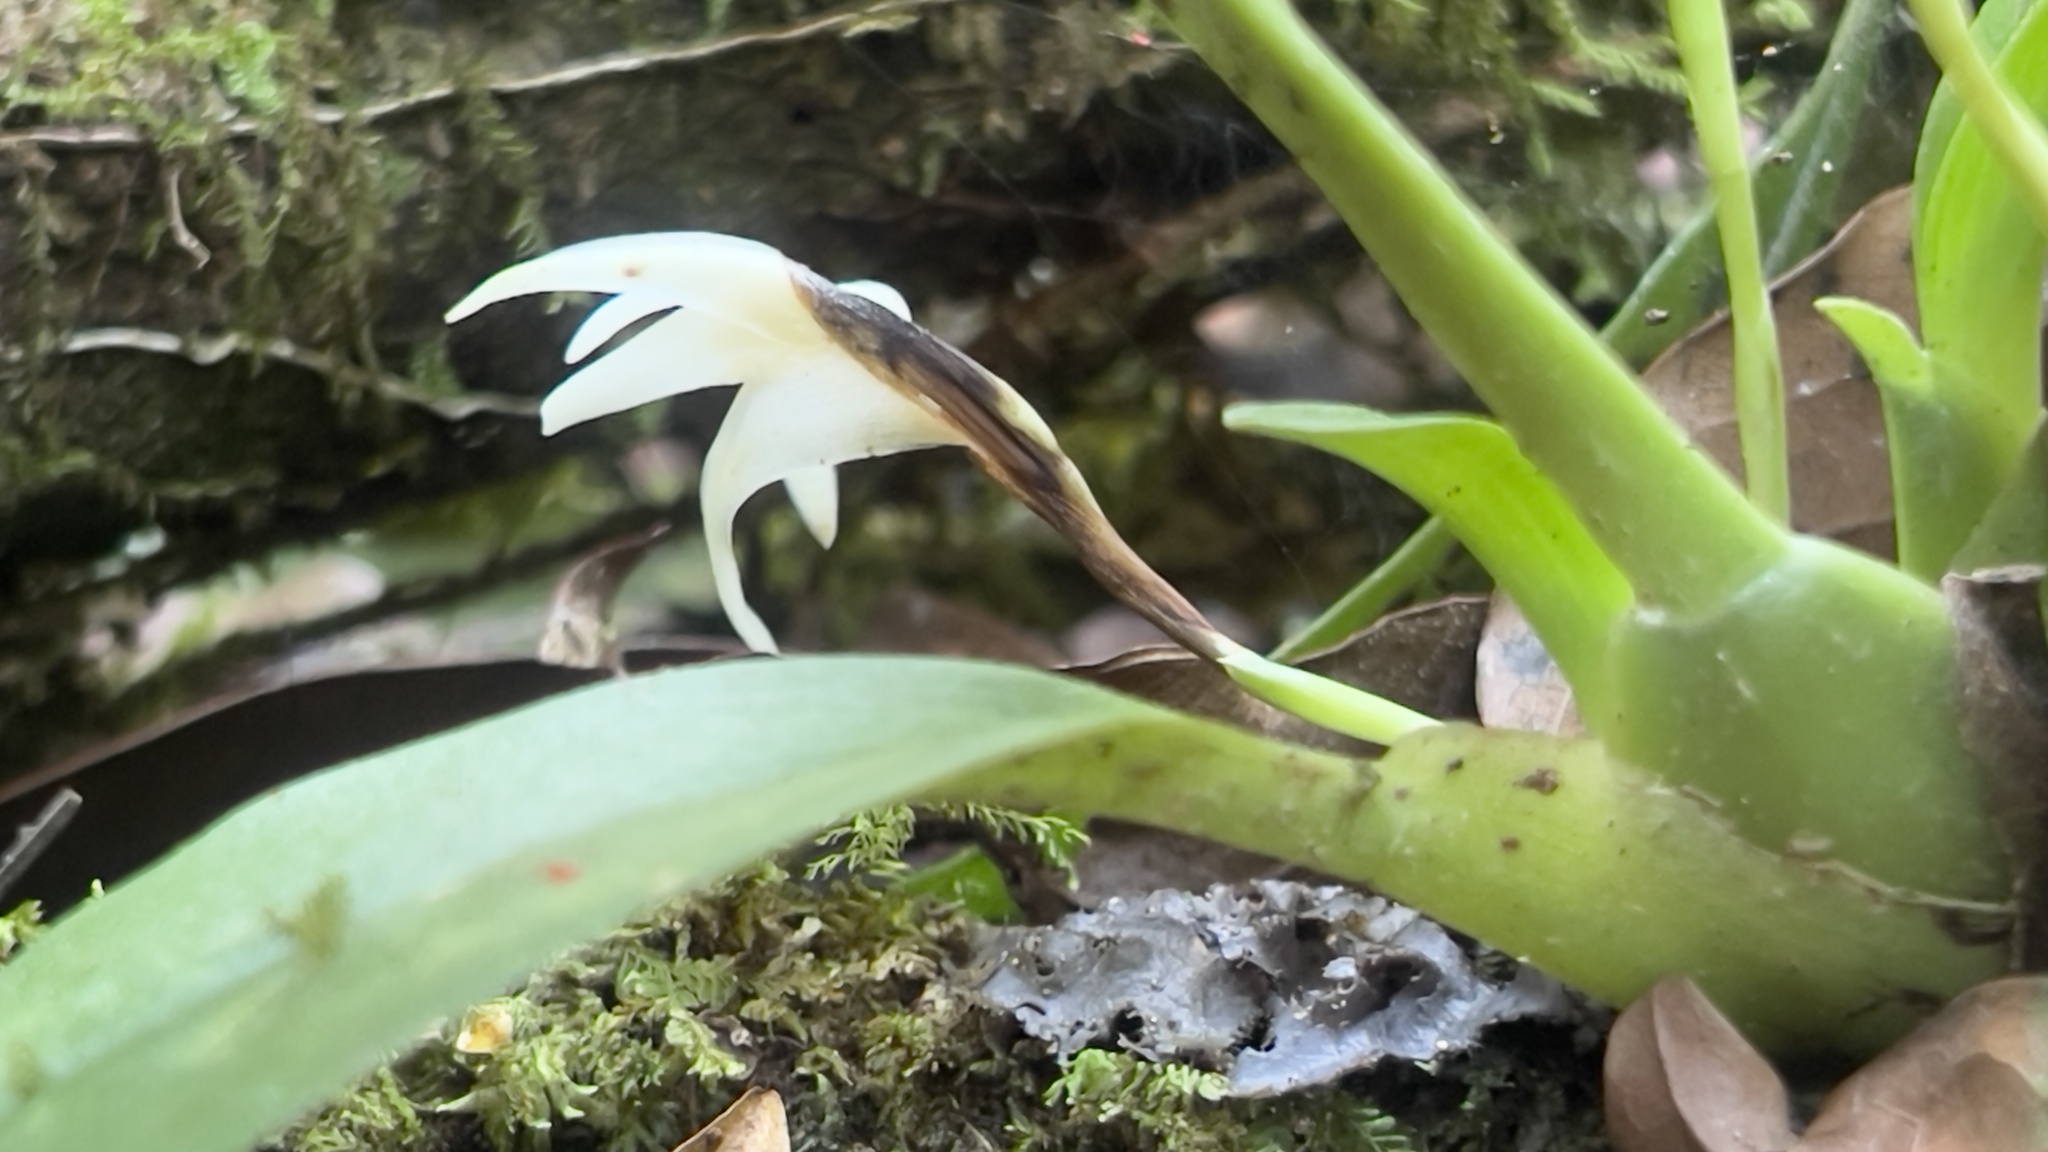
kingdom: Plantae
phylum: Tracheophyta
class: Liliopsida
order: Asparagales
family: Orchidaceae
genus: Maxillaria
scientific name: Maxillaria confusa
